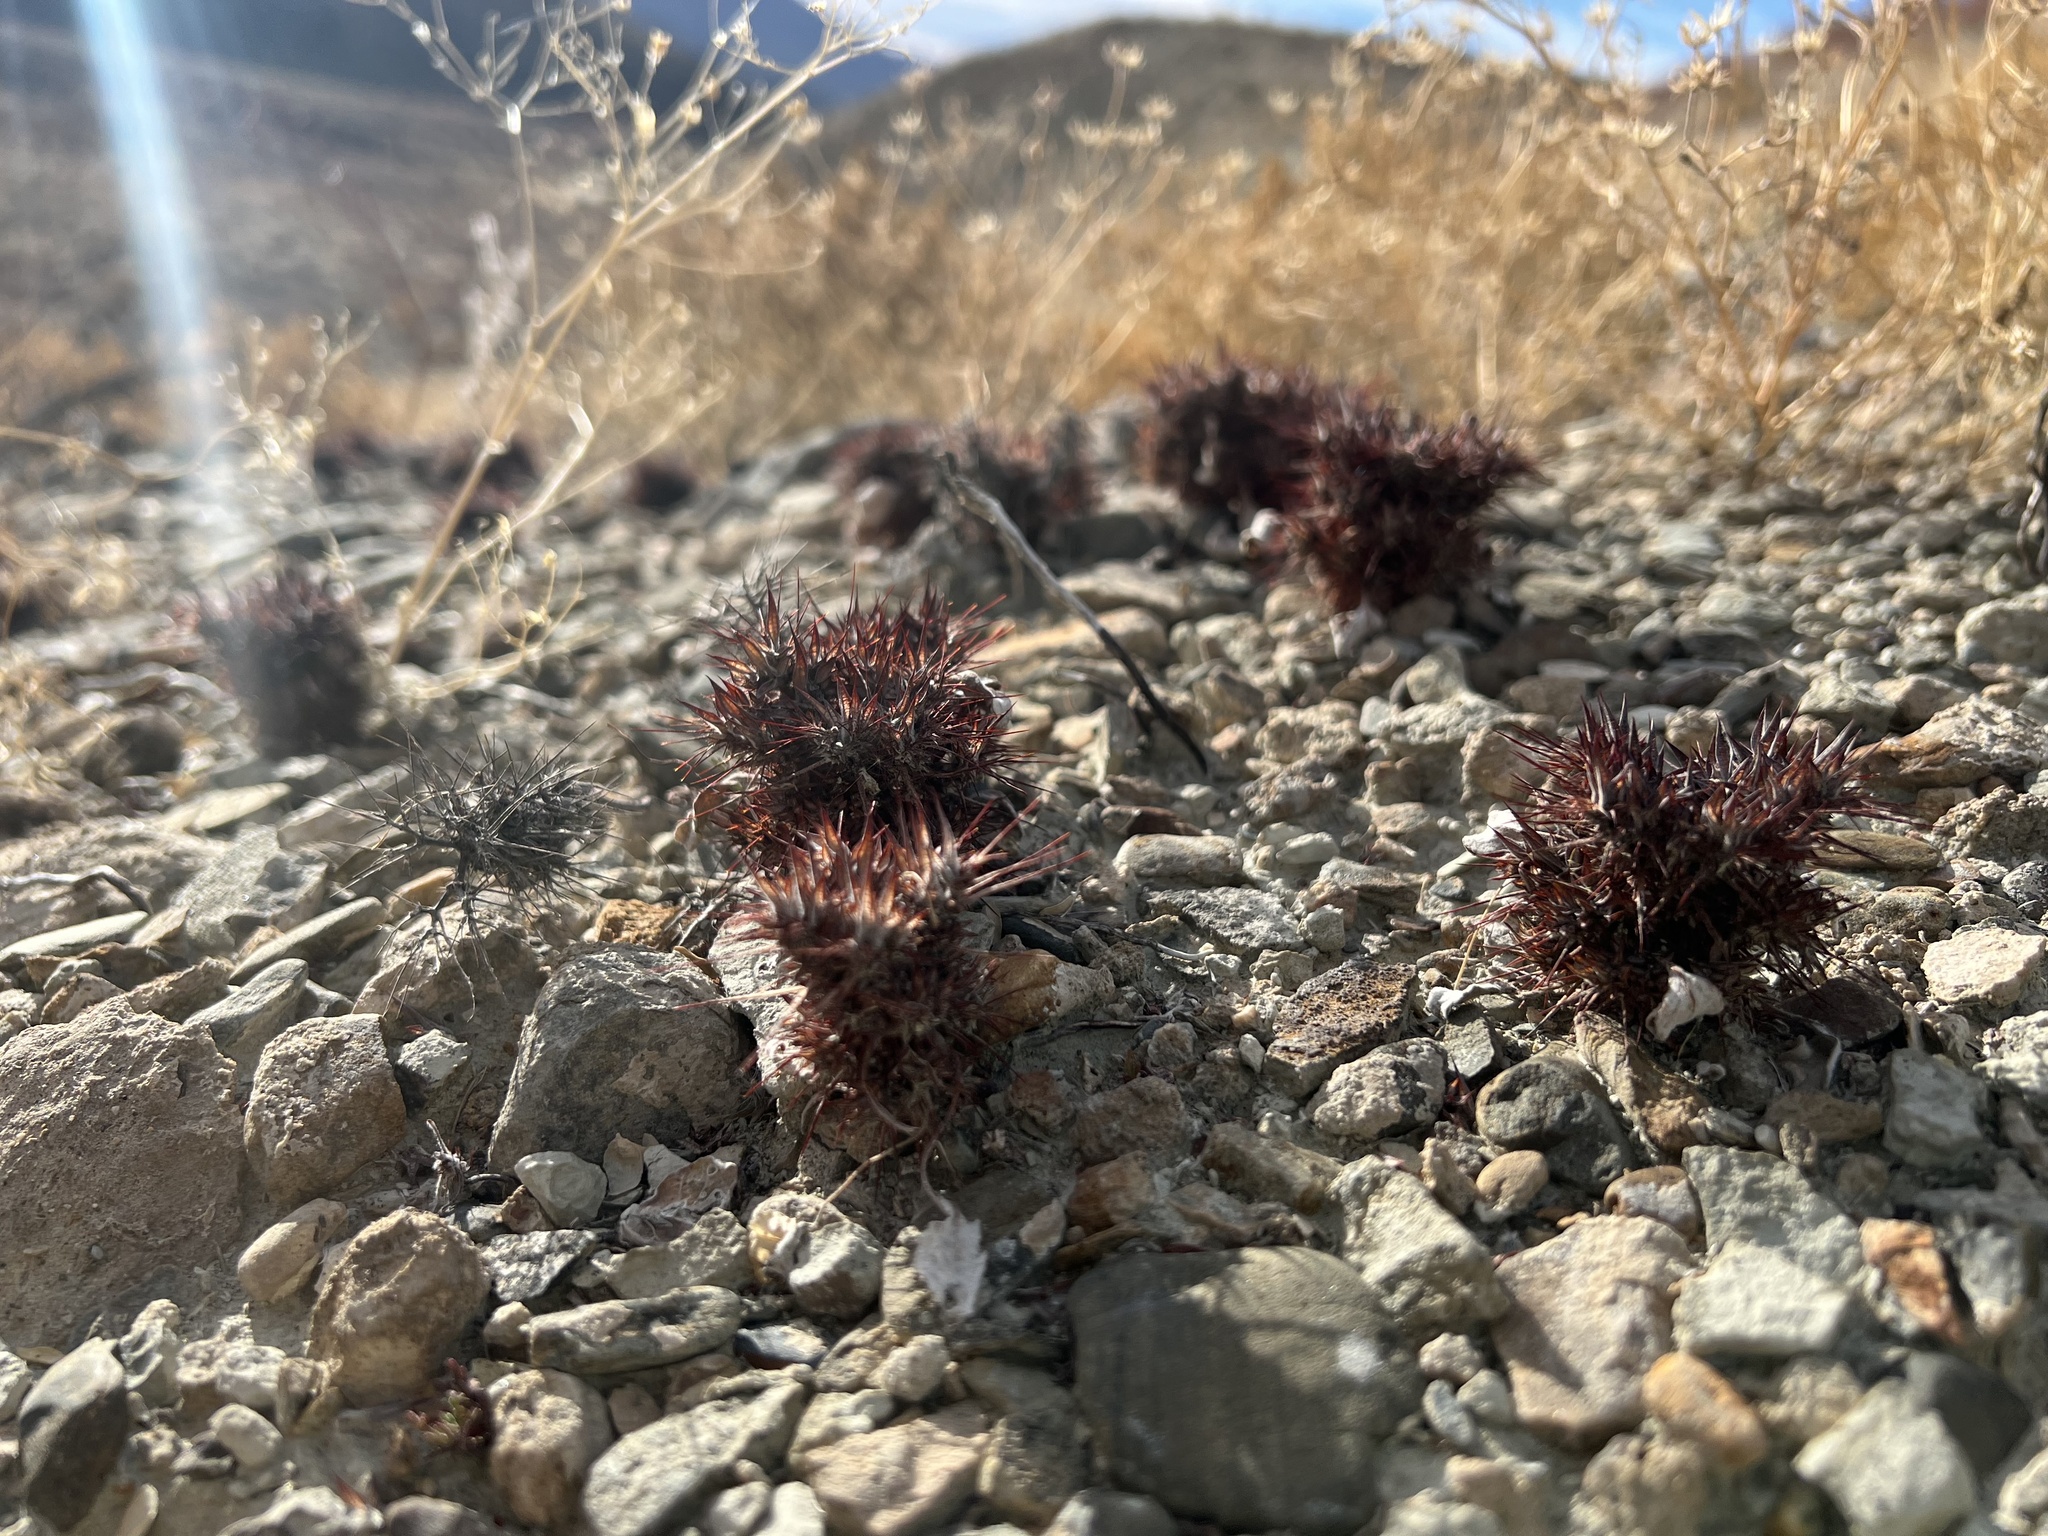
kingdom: Plantae
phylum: Tracheophyta
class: Magnoliopsida
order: Caryophyllales
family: Polygonaceae
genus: Chorizanthe
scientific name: Chorizanthe rigida
